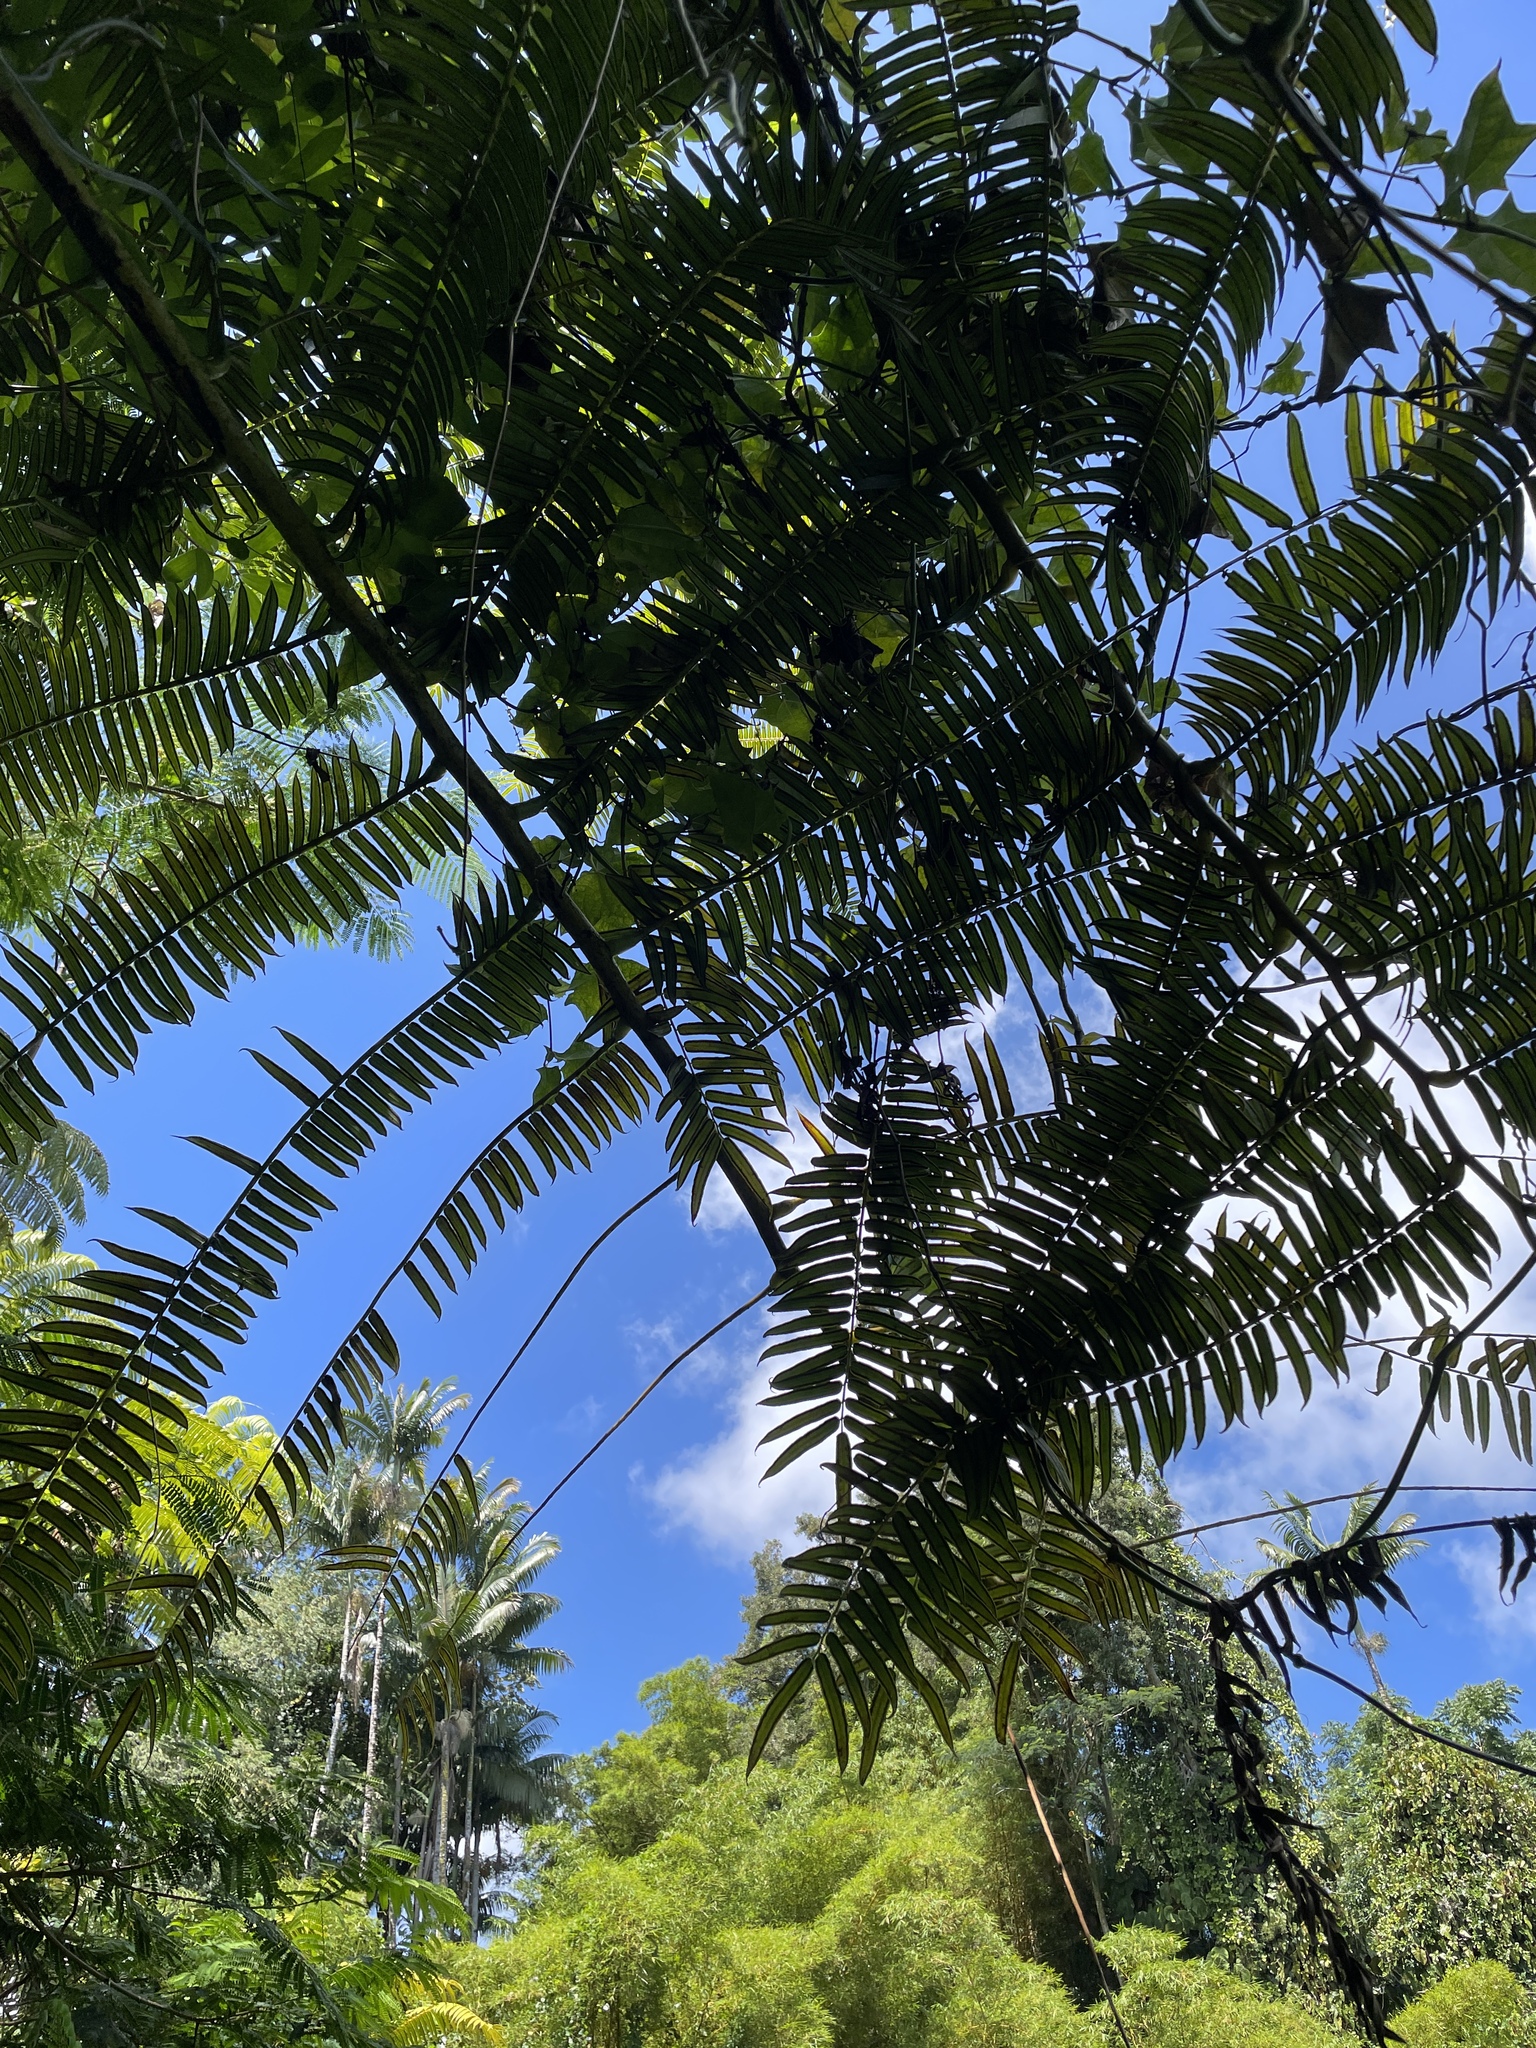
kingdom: Plantae
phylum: Tracheophyta
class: Polypodiopsida
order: Marattiales
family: Marattiaceae
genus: Angiopteris
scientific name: Angiopteris evecta
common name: Mule's-foot fern
